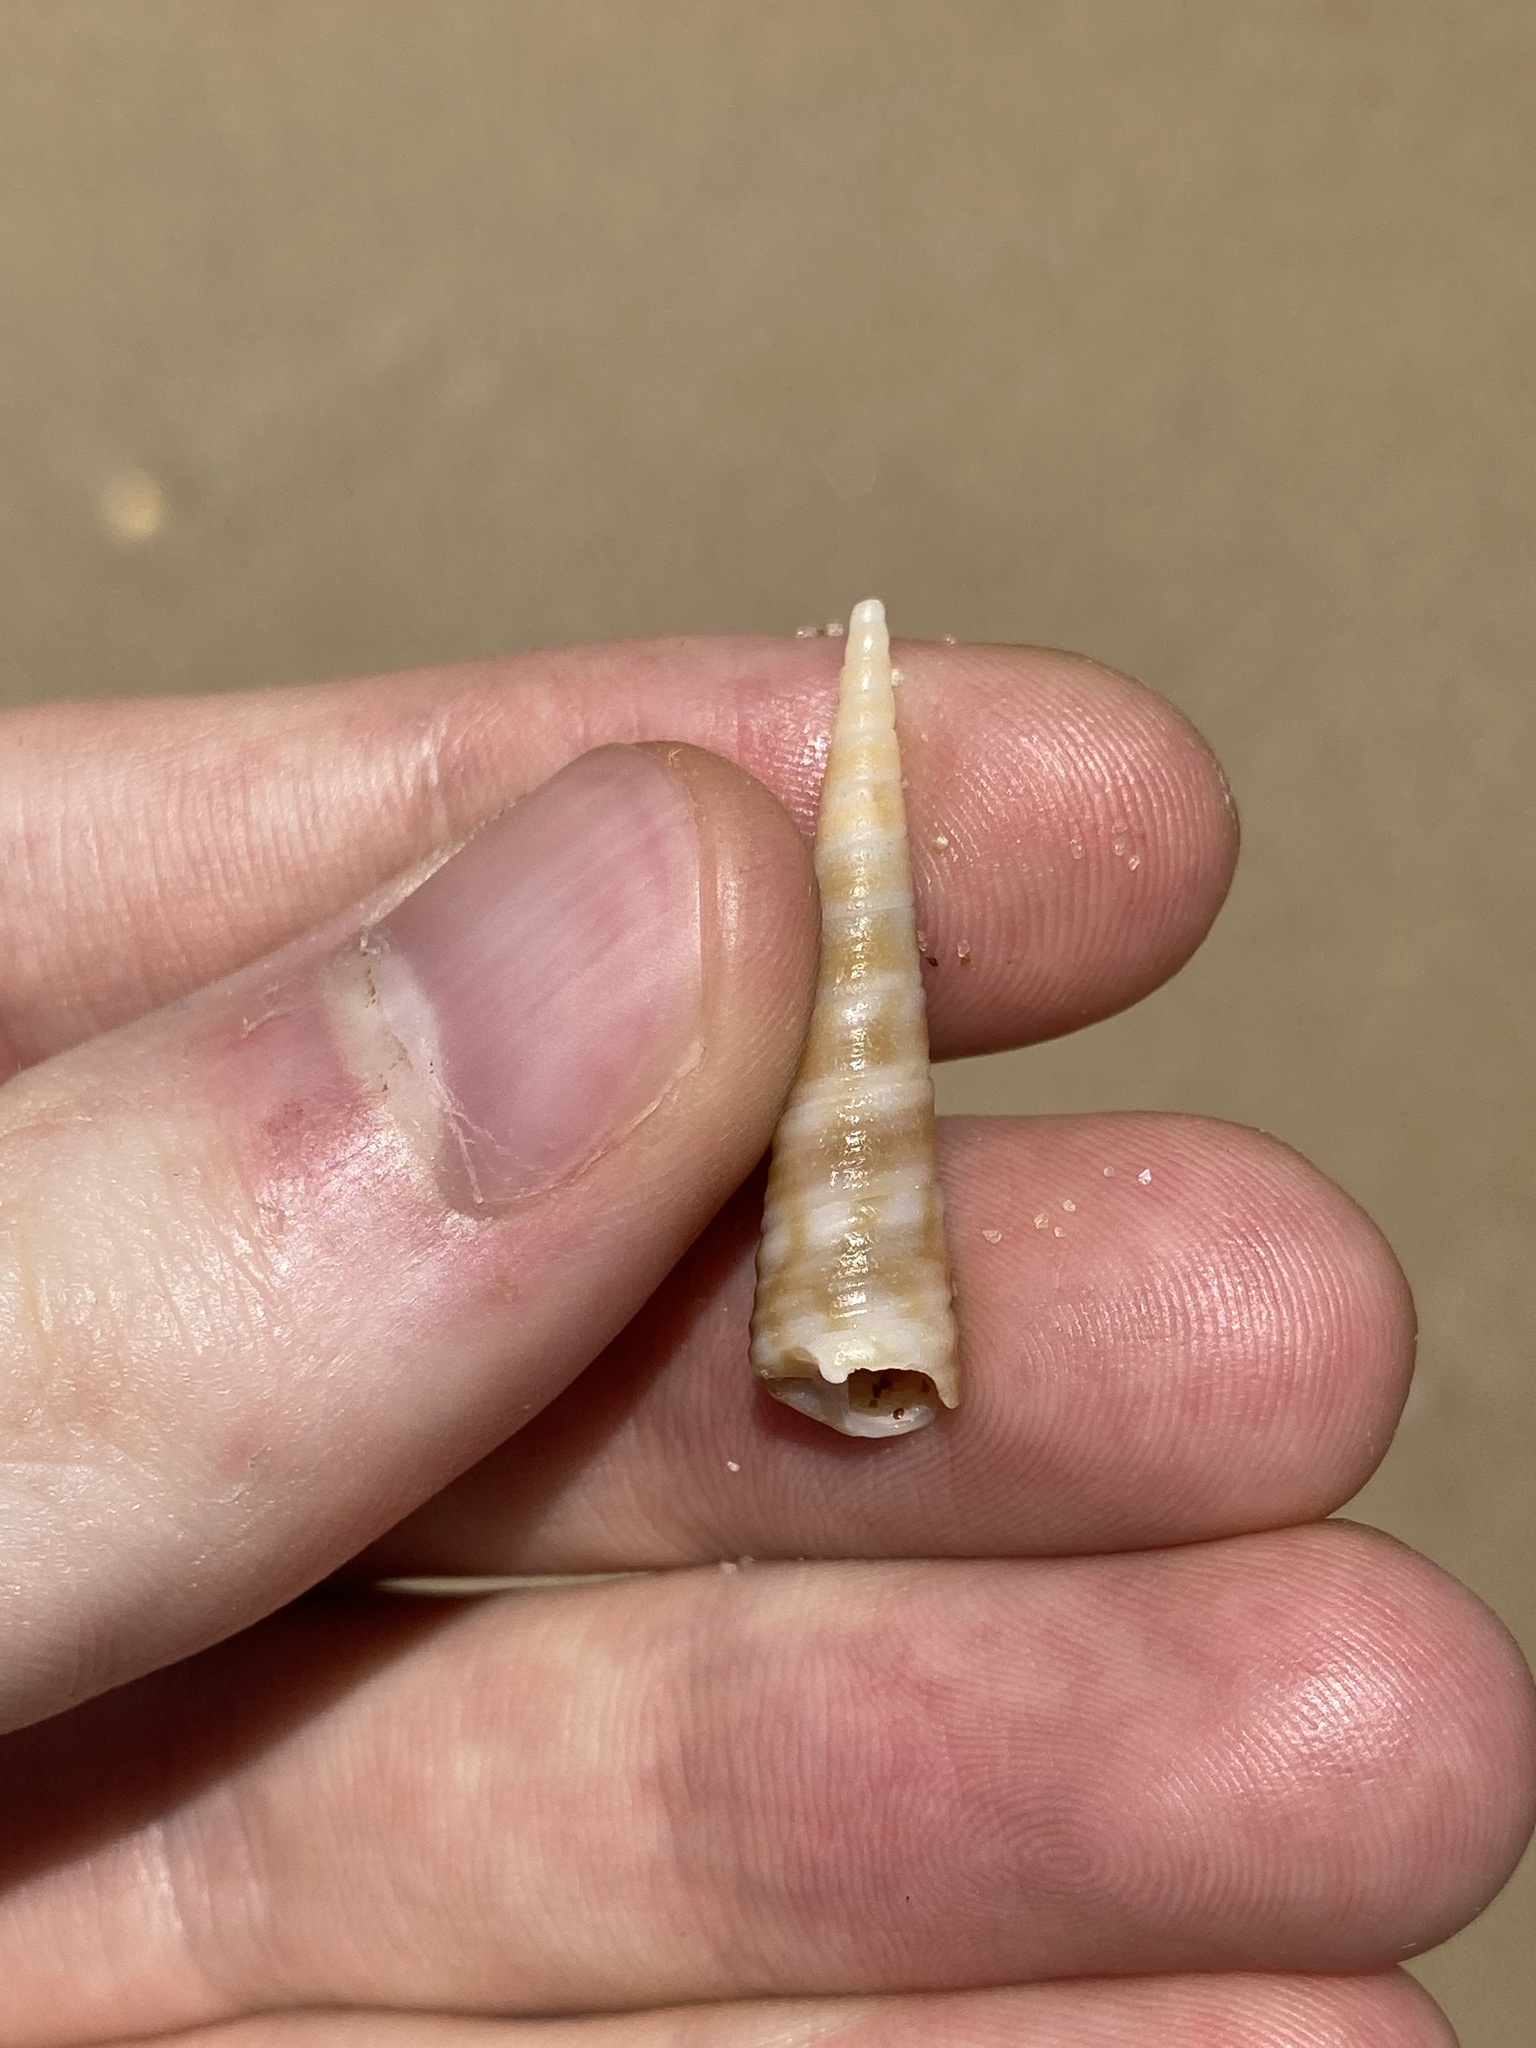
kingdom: Animalia
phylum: Mollusca
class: Gastropoda
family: Turritellidae
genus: Gazameda
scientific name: Gazameda gunnii
